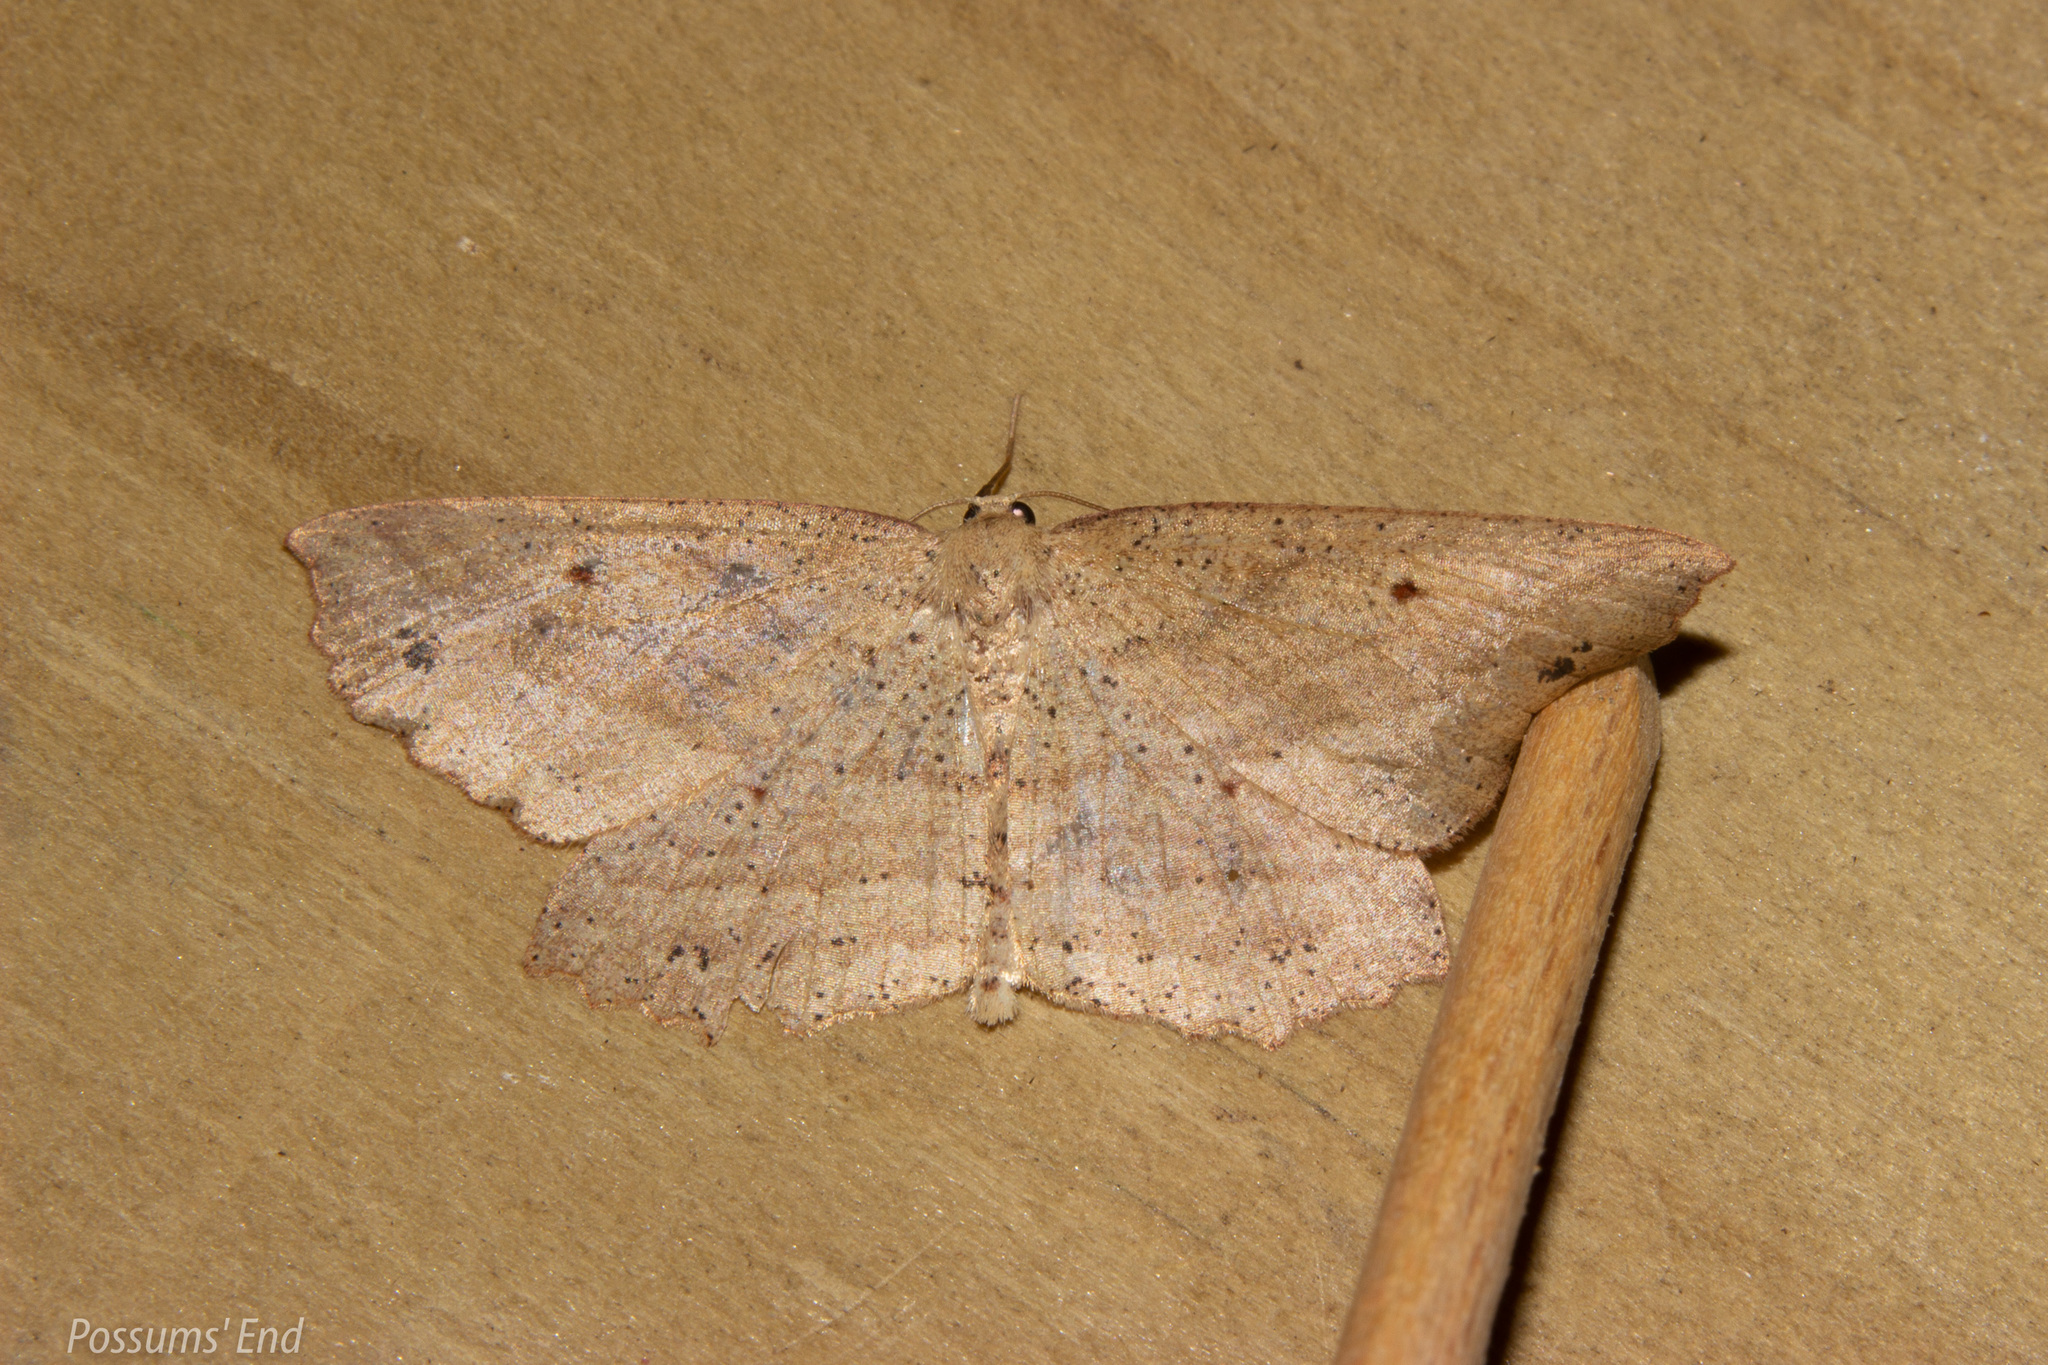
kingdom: Animalia
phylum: Arthropoda
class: Insecta
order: Lepidoptera
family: Geometridae
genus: Xyridacma
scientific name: Xyridacma veronicae
